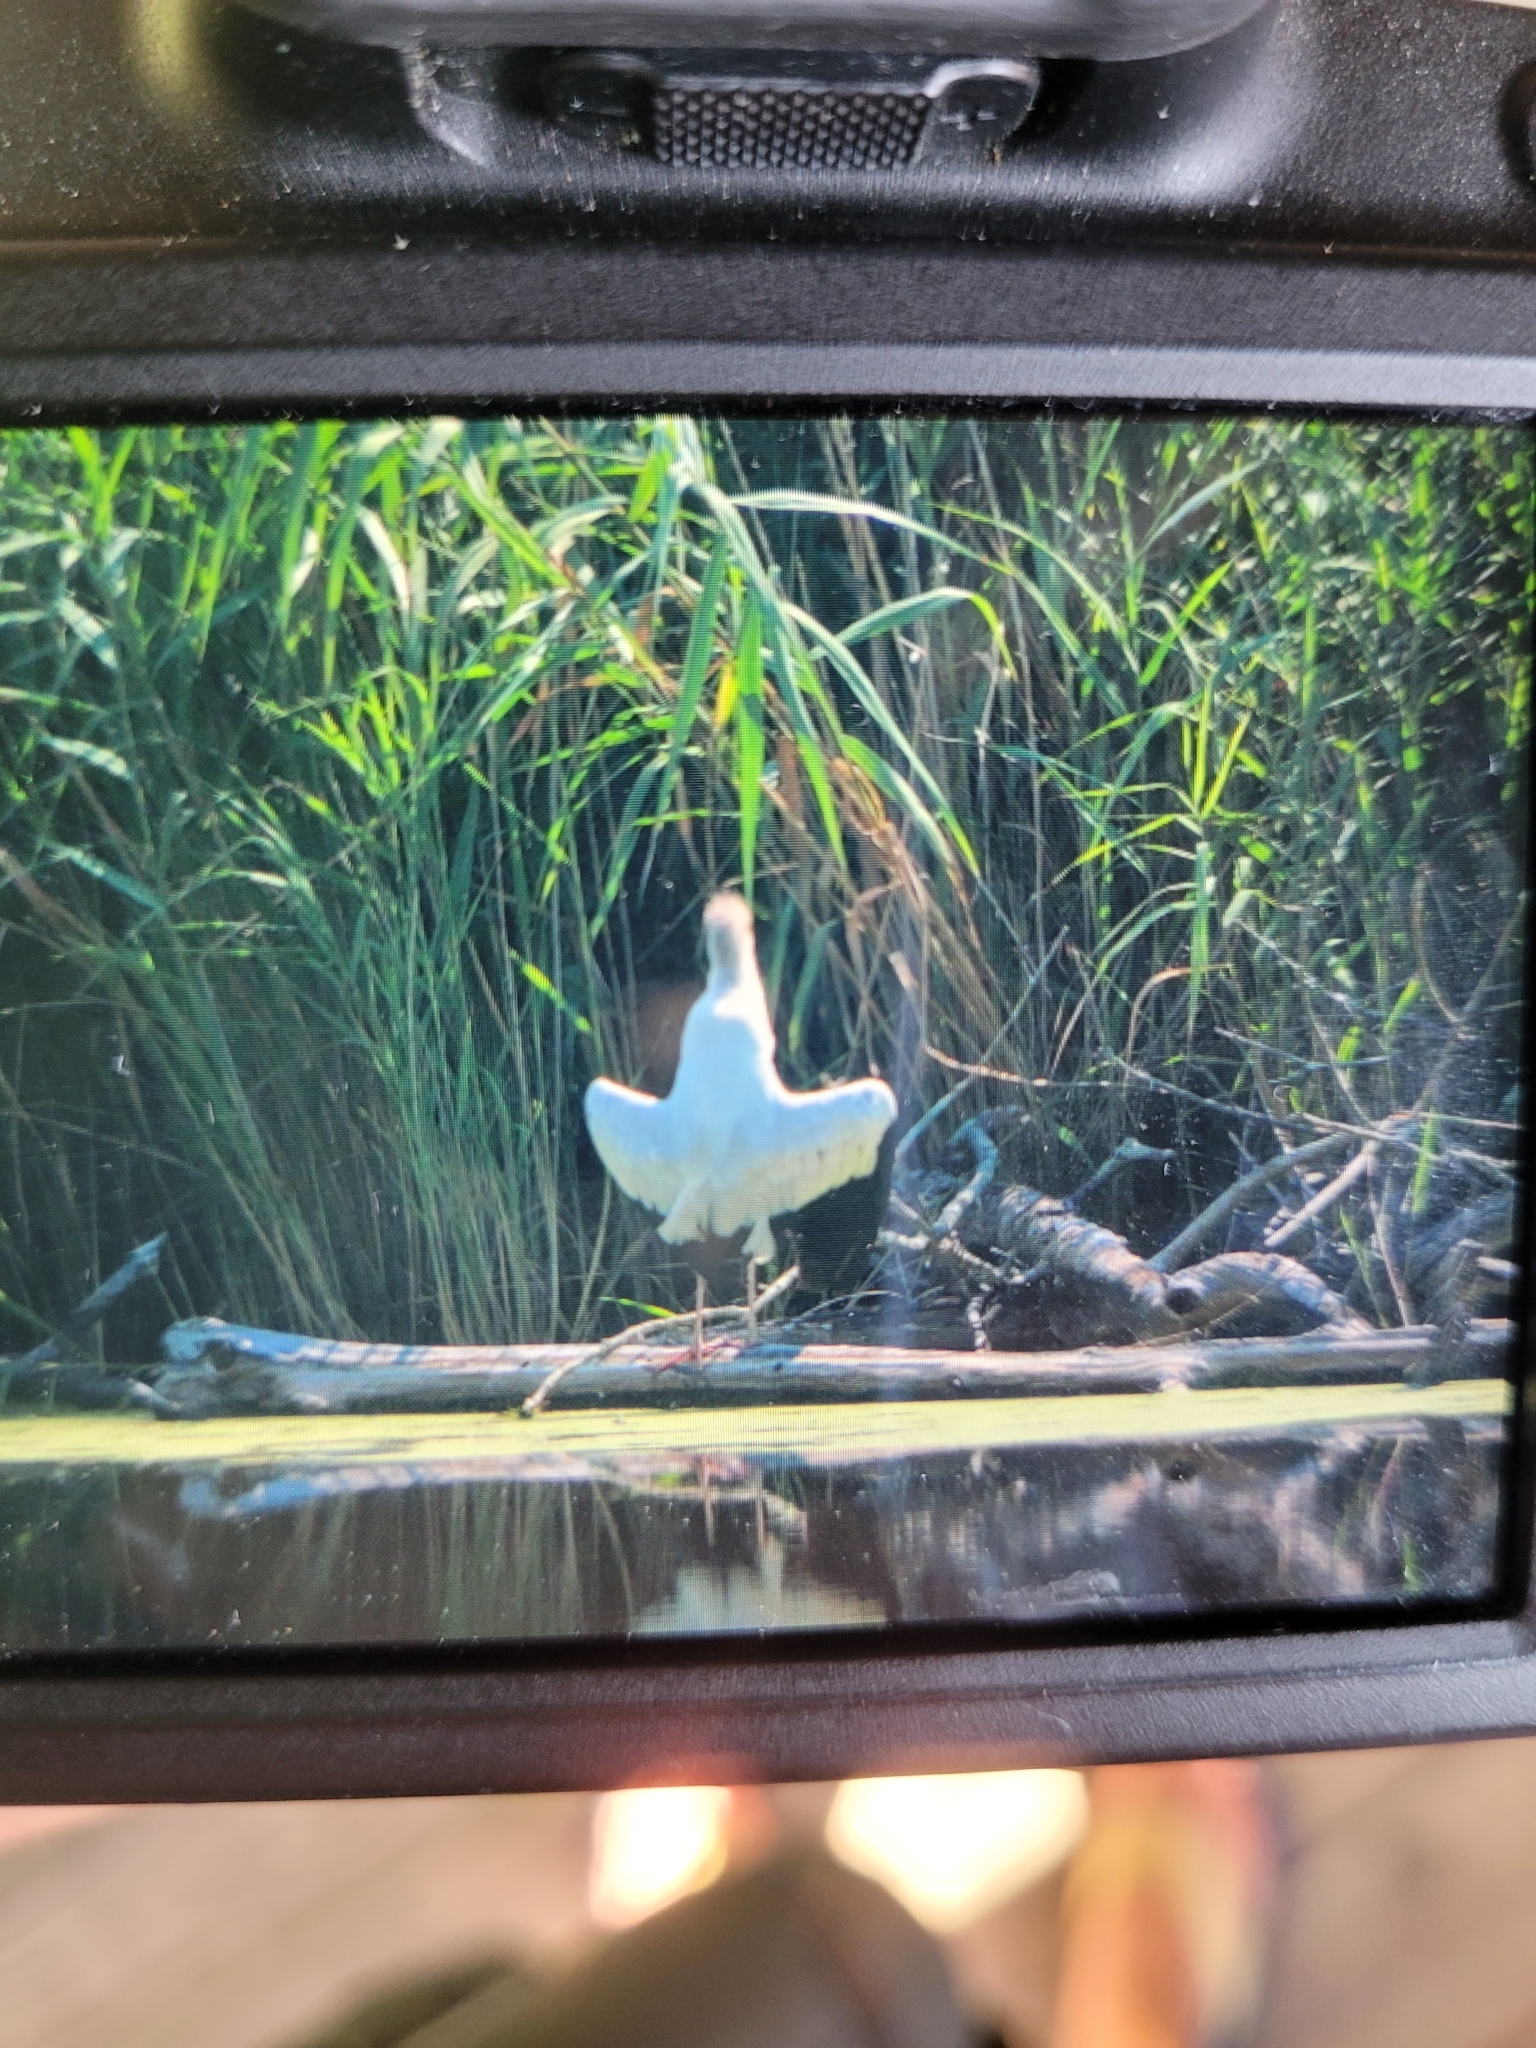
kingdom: Animalia
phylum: Chordata
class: Aves
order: Ciconiiformes
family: Ciconiidae
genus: Mycteria
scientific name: Mycteria americana
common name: Wood stork
